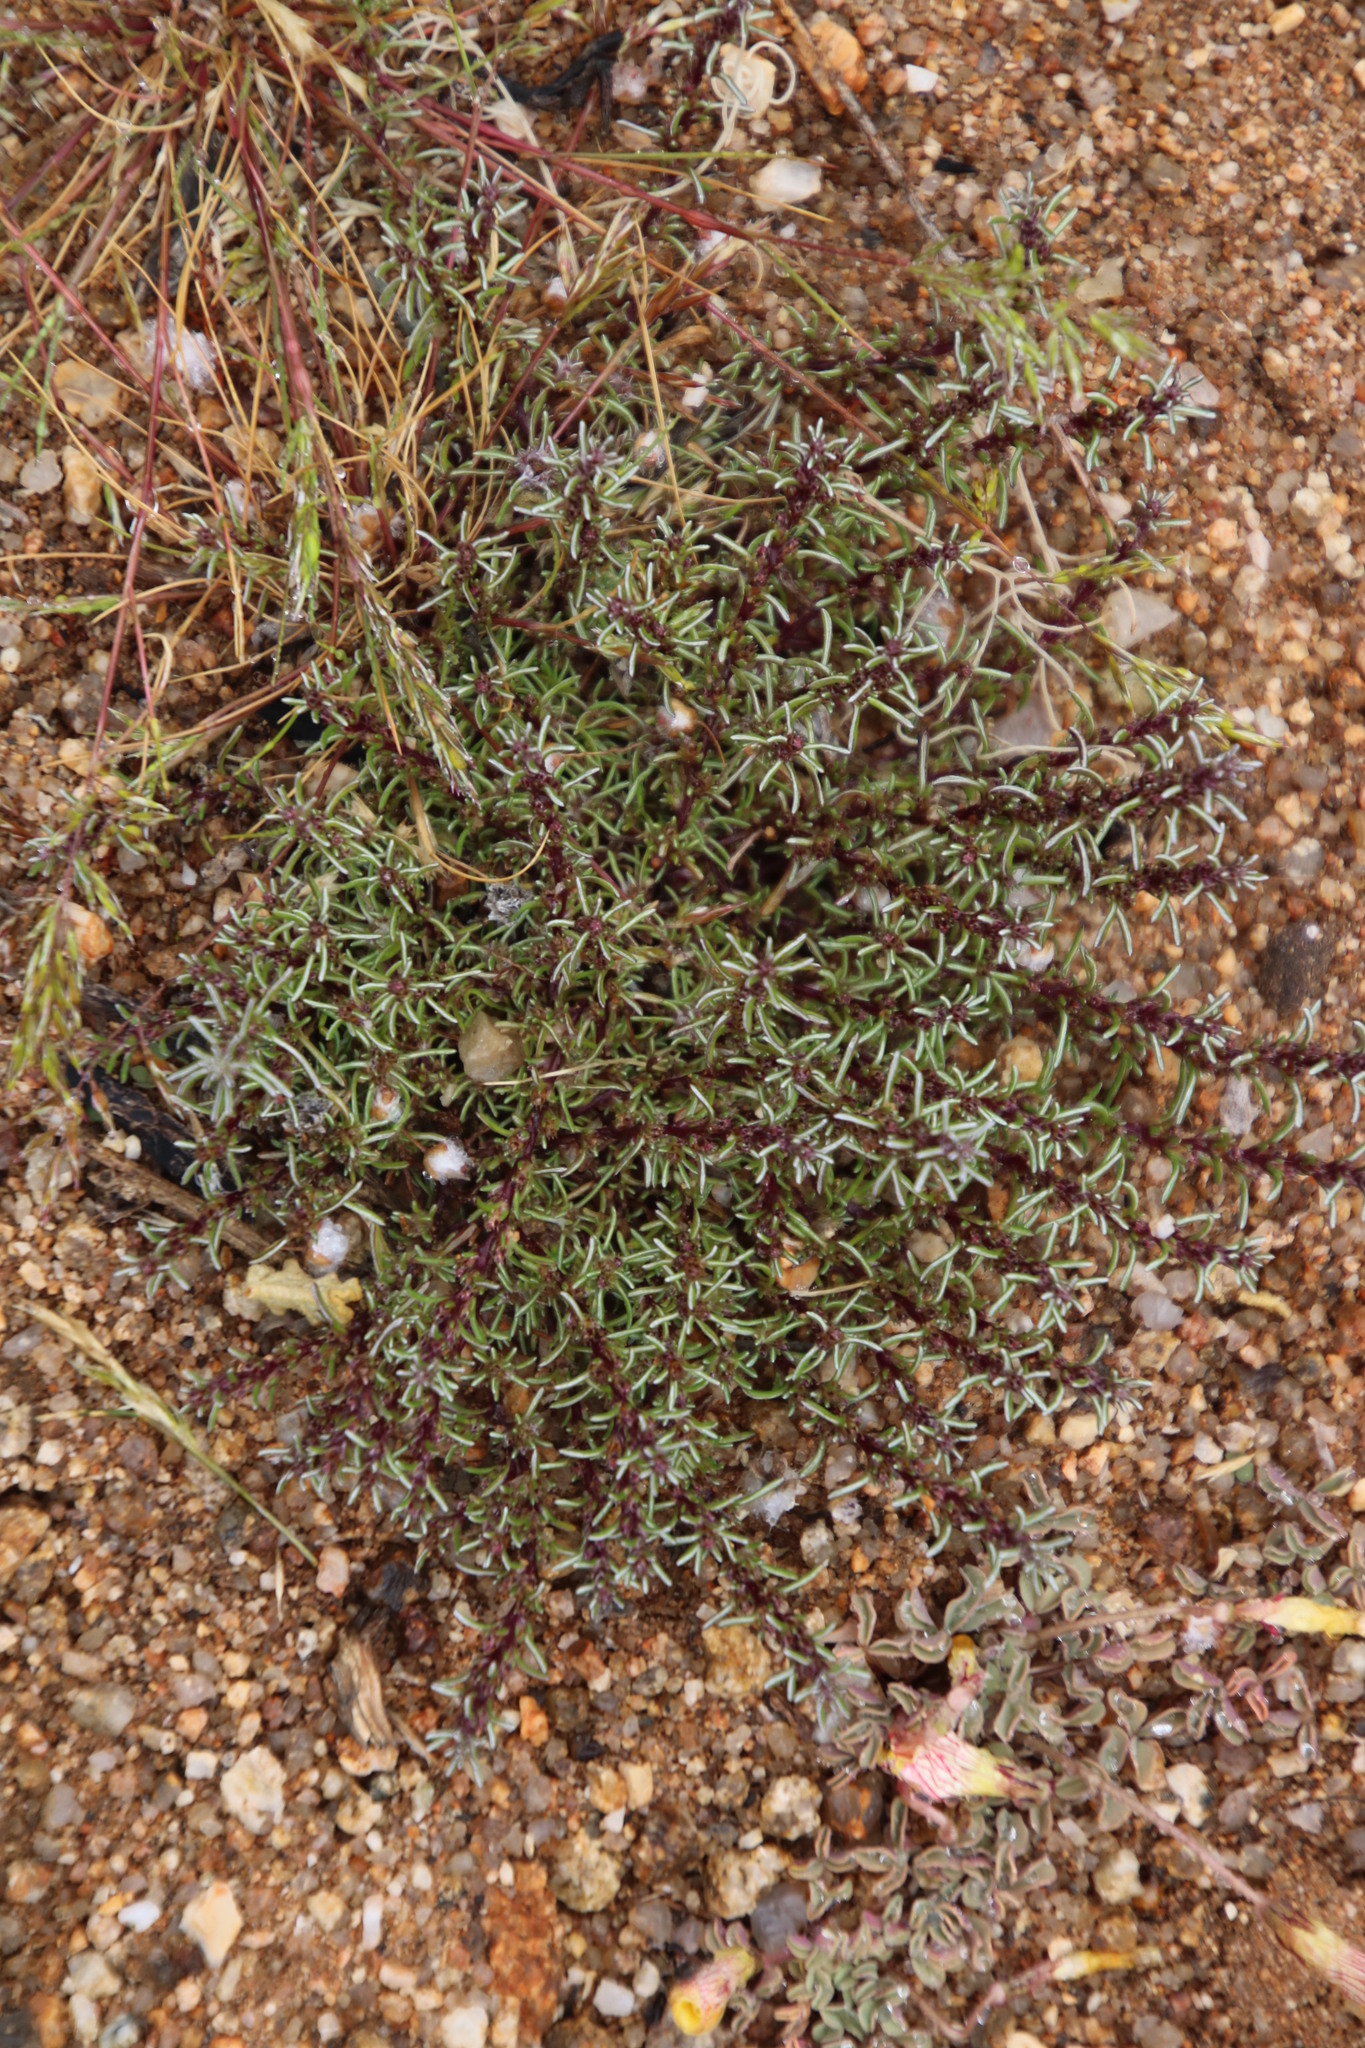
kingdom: Plantae
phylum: Tracheophyta
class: Magnoliopsida
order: Asterales
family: Asteraceae
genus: Ifloga
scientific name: Ifloga polycnemoides
